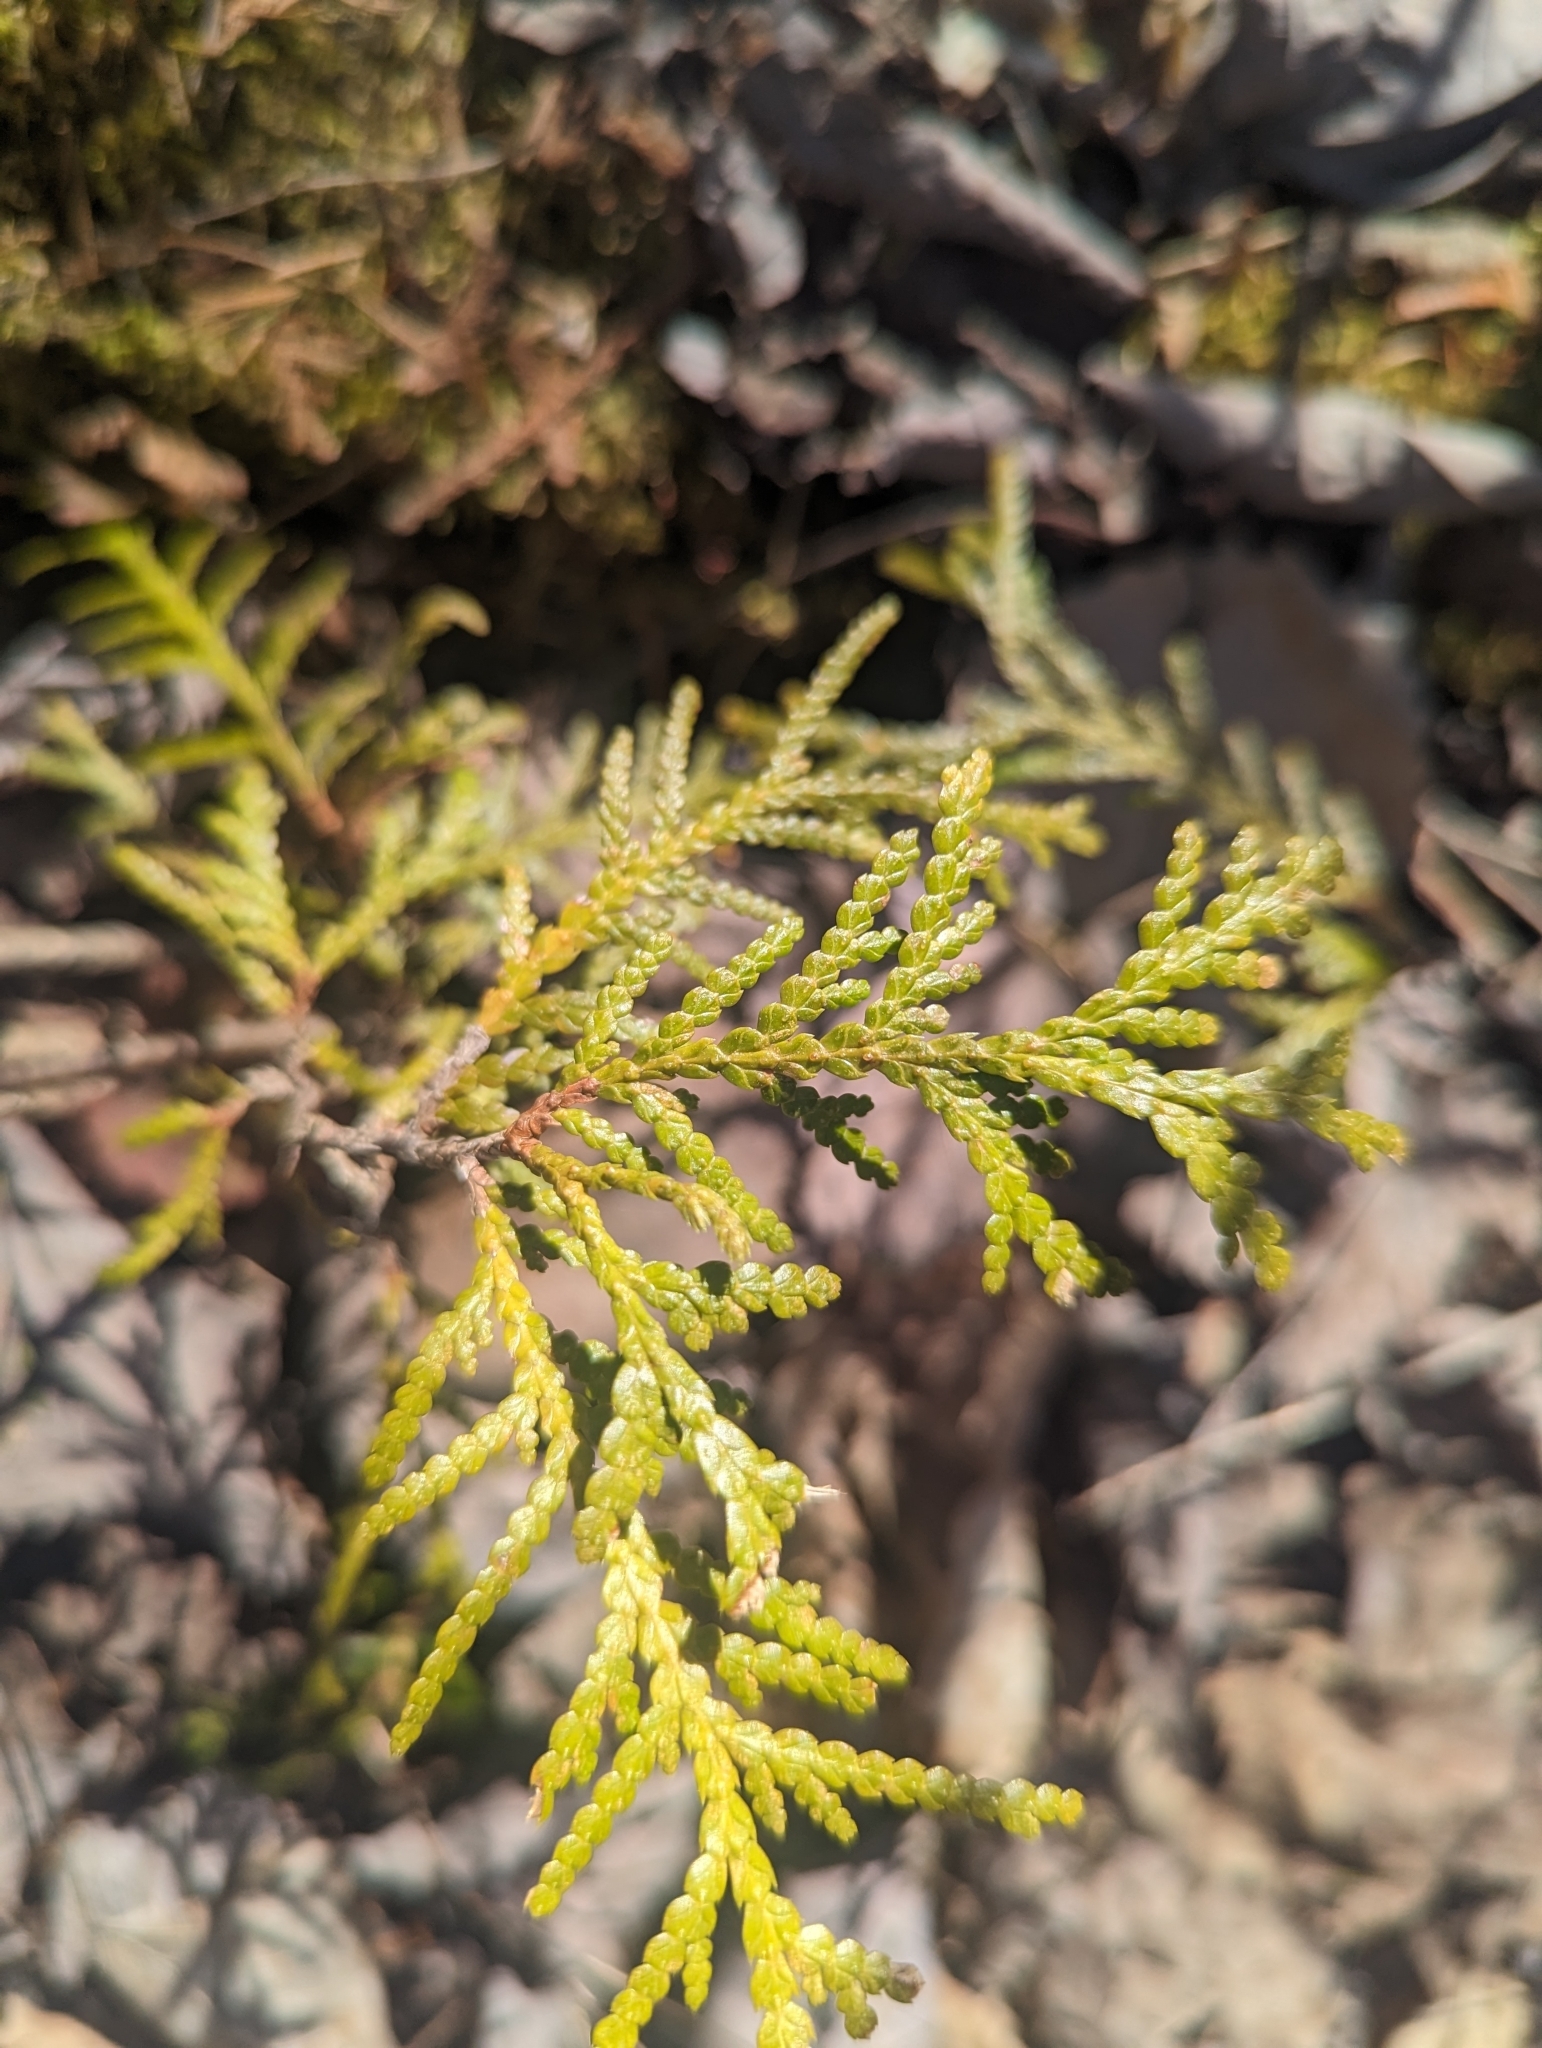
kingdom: Plantae
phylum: Tracheophyta
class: Pinopsida
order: Pinales
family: Cupressaceae
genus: Thuja
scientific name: Thuja occidentalis
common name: Northern white-cedar
